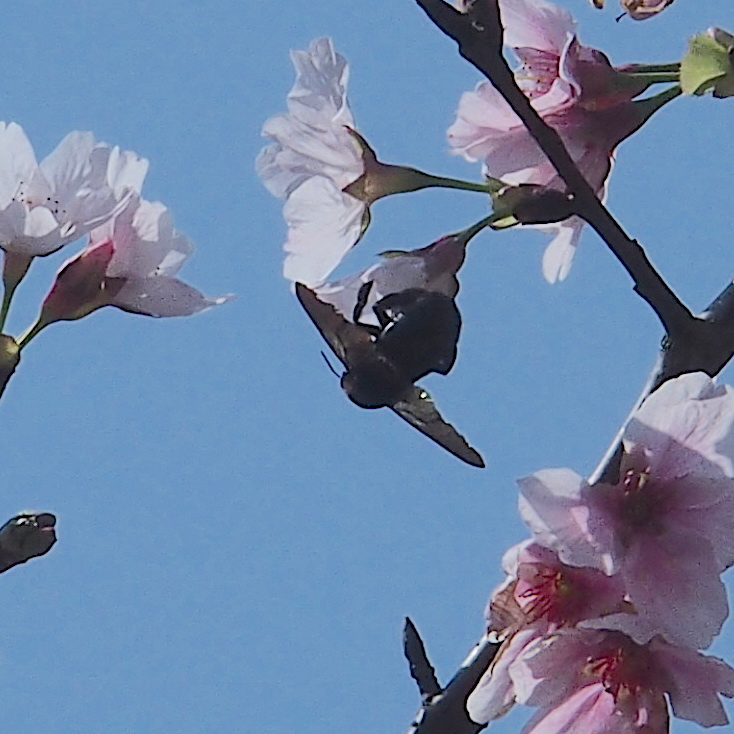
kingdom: Animalia
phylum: Arthropoda
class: Insecta
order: Hymenoptera
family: Apidae
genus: Xylocopa
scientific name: Xylocopa tranquebarorum
